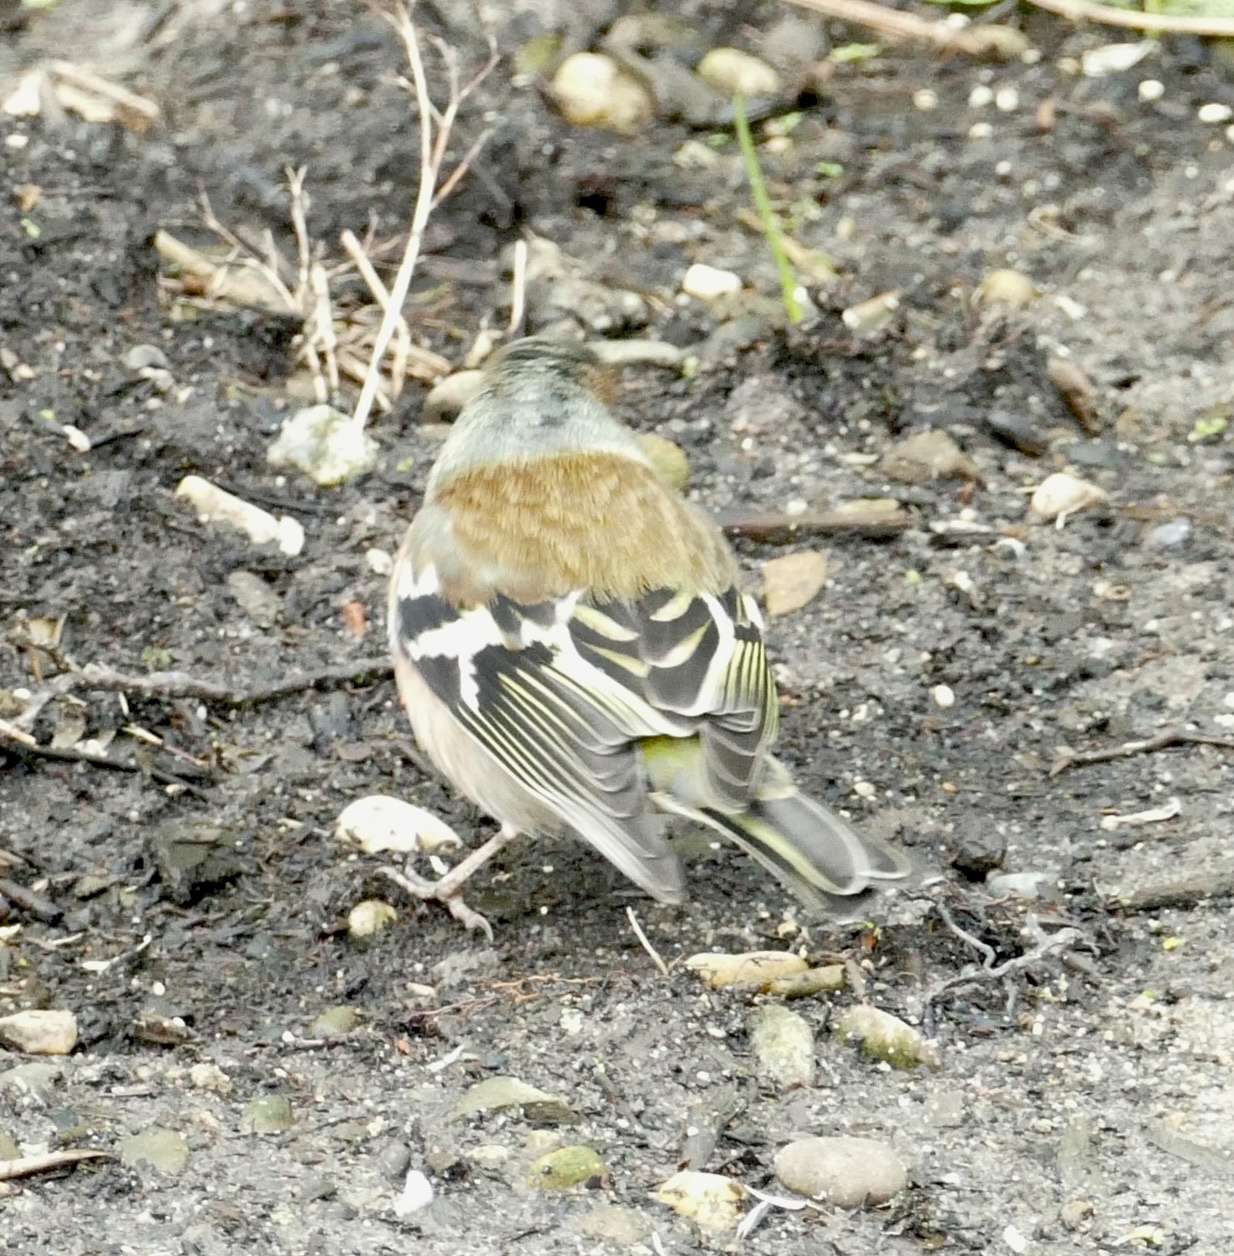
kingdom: Animalia
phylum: Chordata
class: Aves
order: Passeriformes
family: Fringillidae
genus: Fringilla
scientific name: Fringilla coelebs
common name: Common chaffinch
